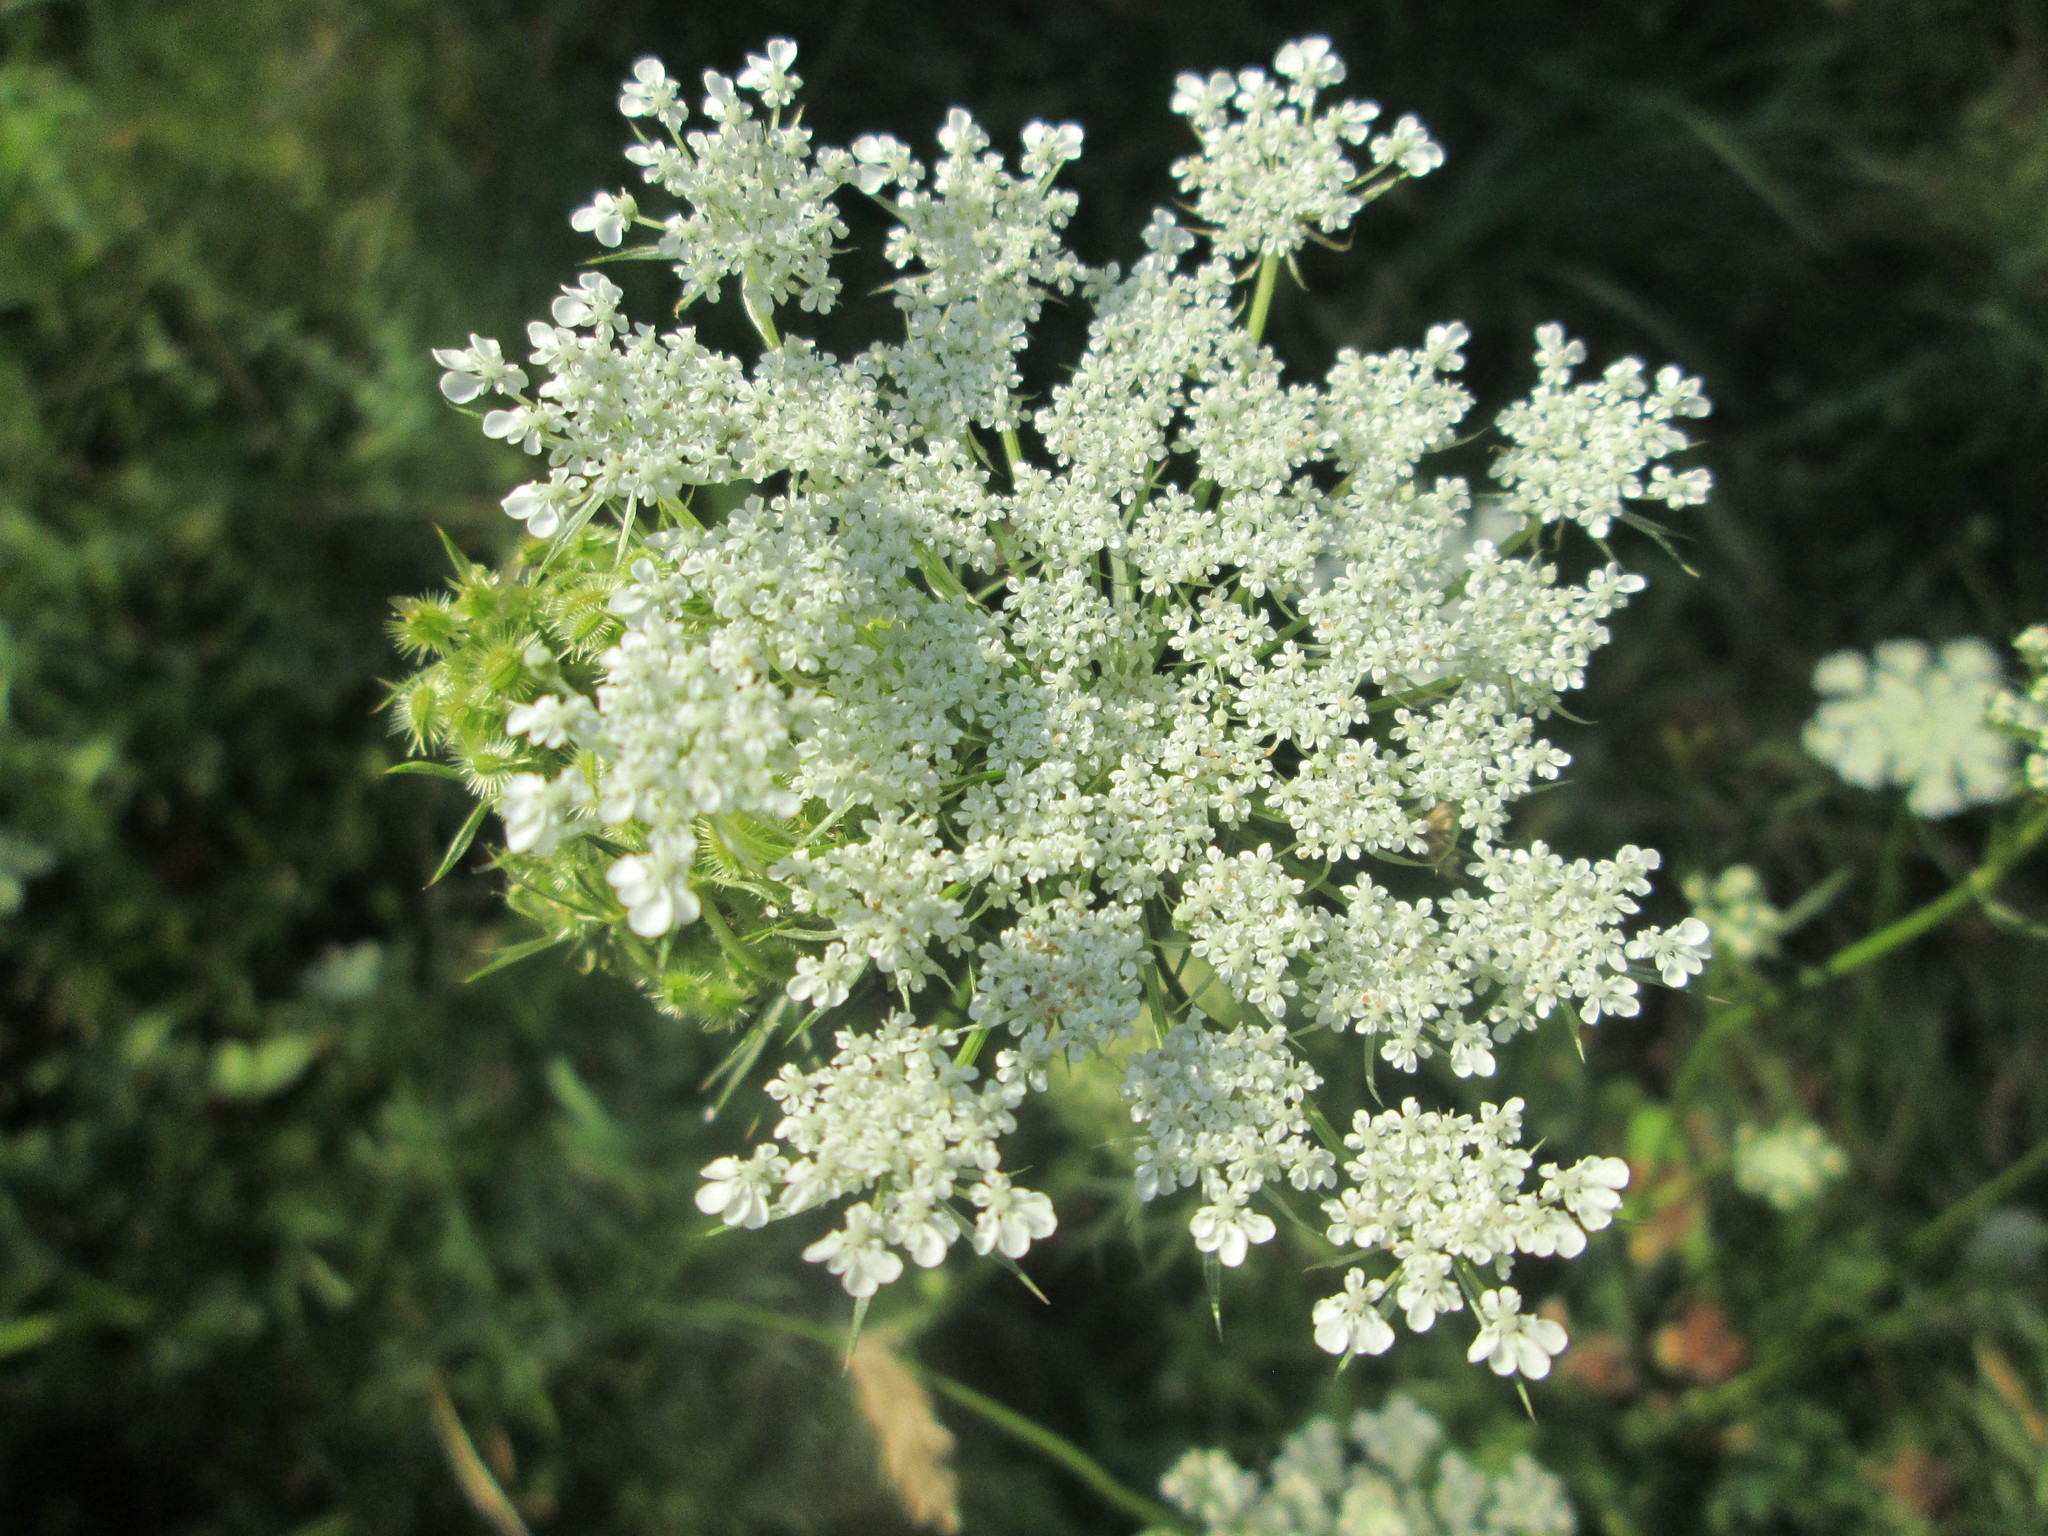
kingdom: Plantae
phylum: Tracheophyta
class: Magnoliopsida
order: Apiales
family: Apiaceae
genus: Daucus
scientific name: Daucus carota
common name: Wild carrot
